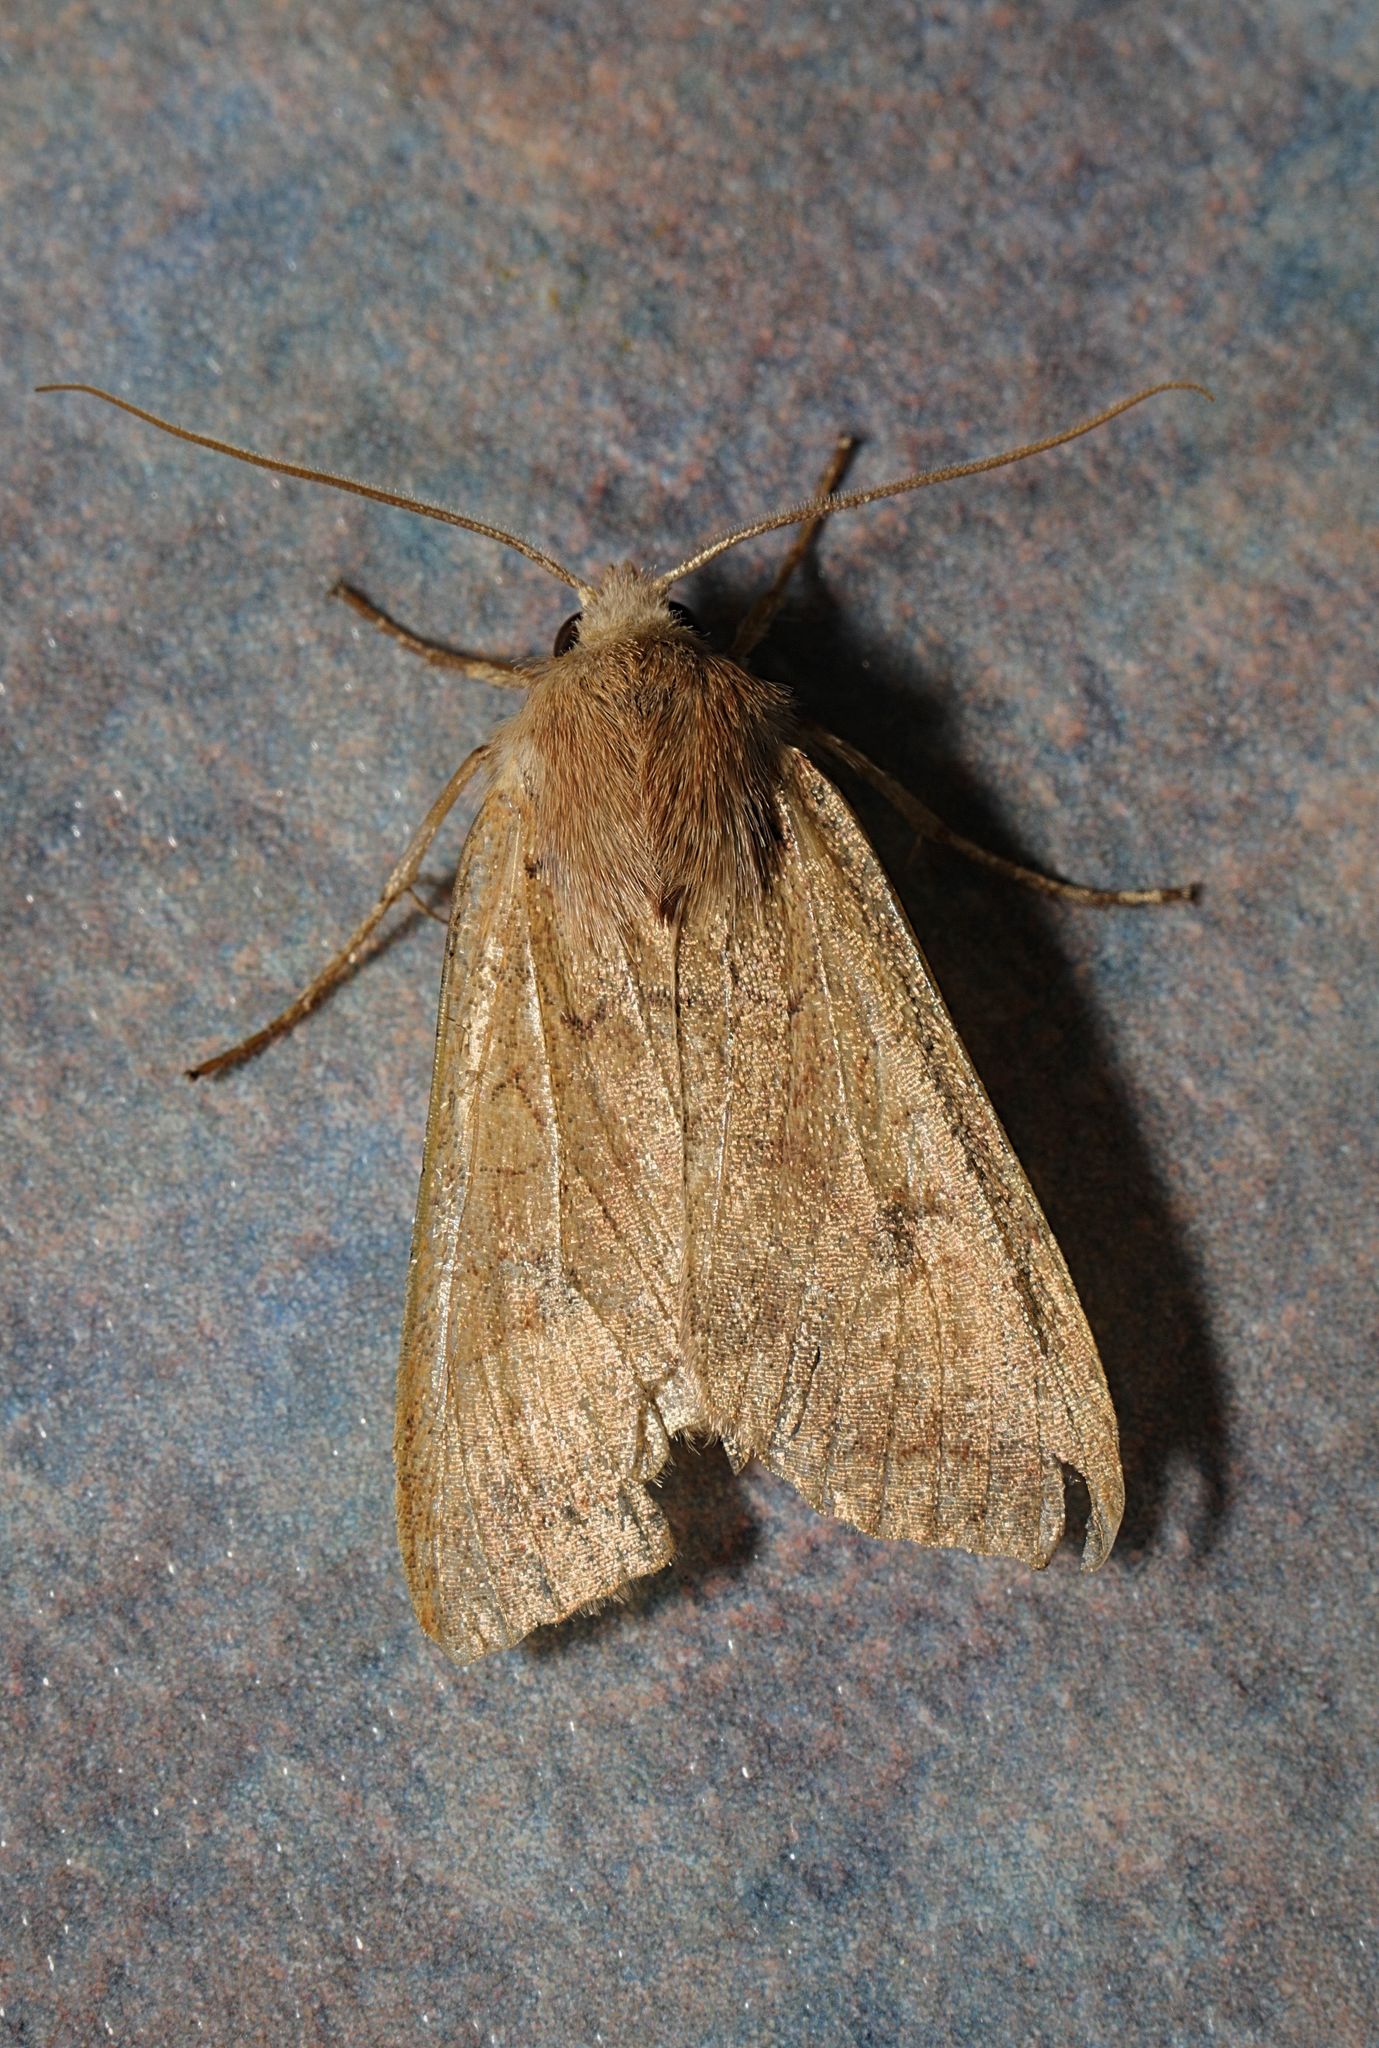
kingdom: Animalia
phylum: Arthropoda
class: Insecta
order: Lepidoptera
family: Noctuidae
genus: Sunira
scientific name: Sunira circellaris
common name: Brick
